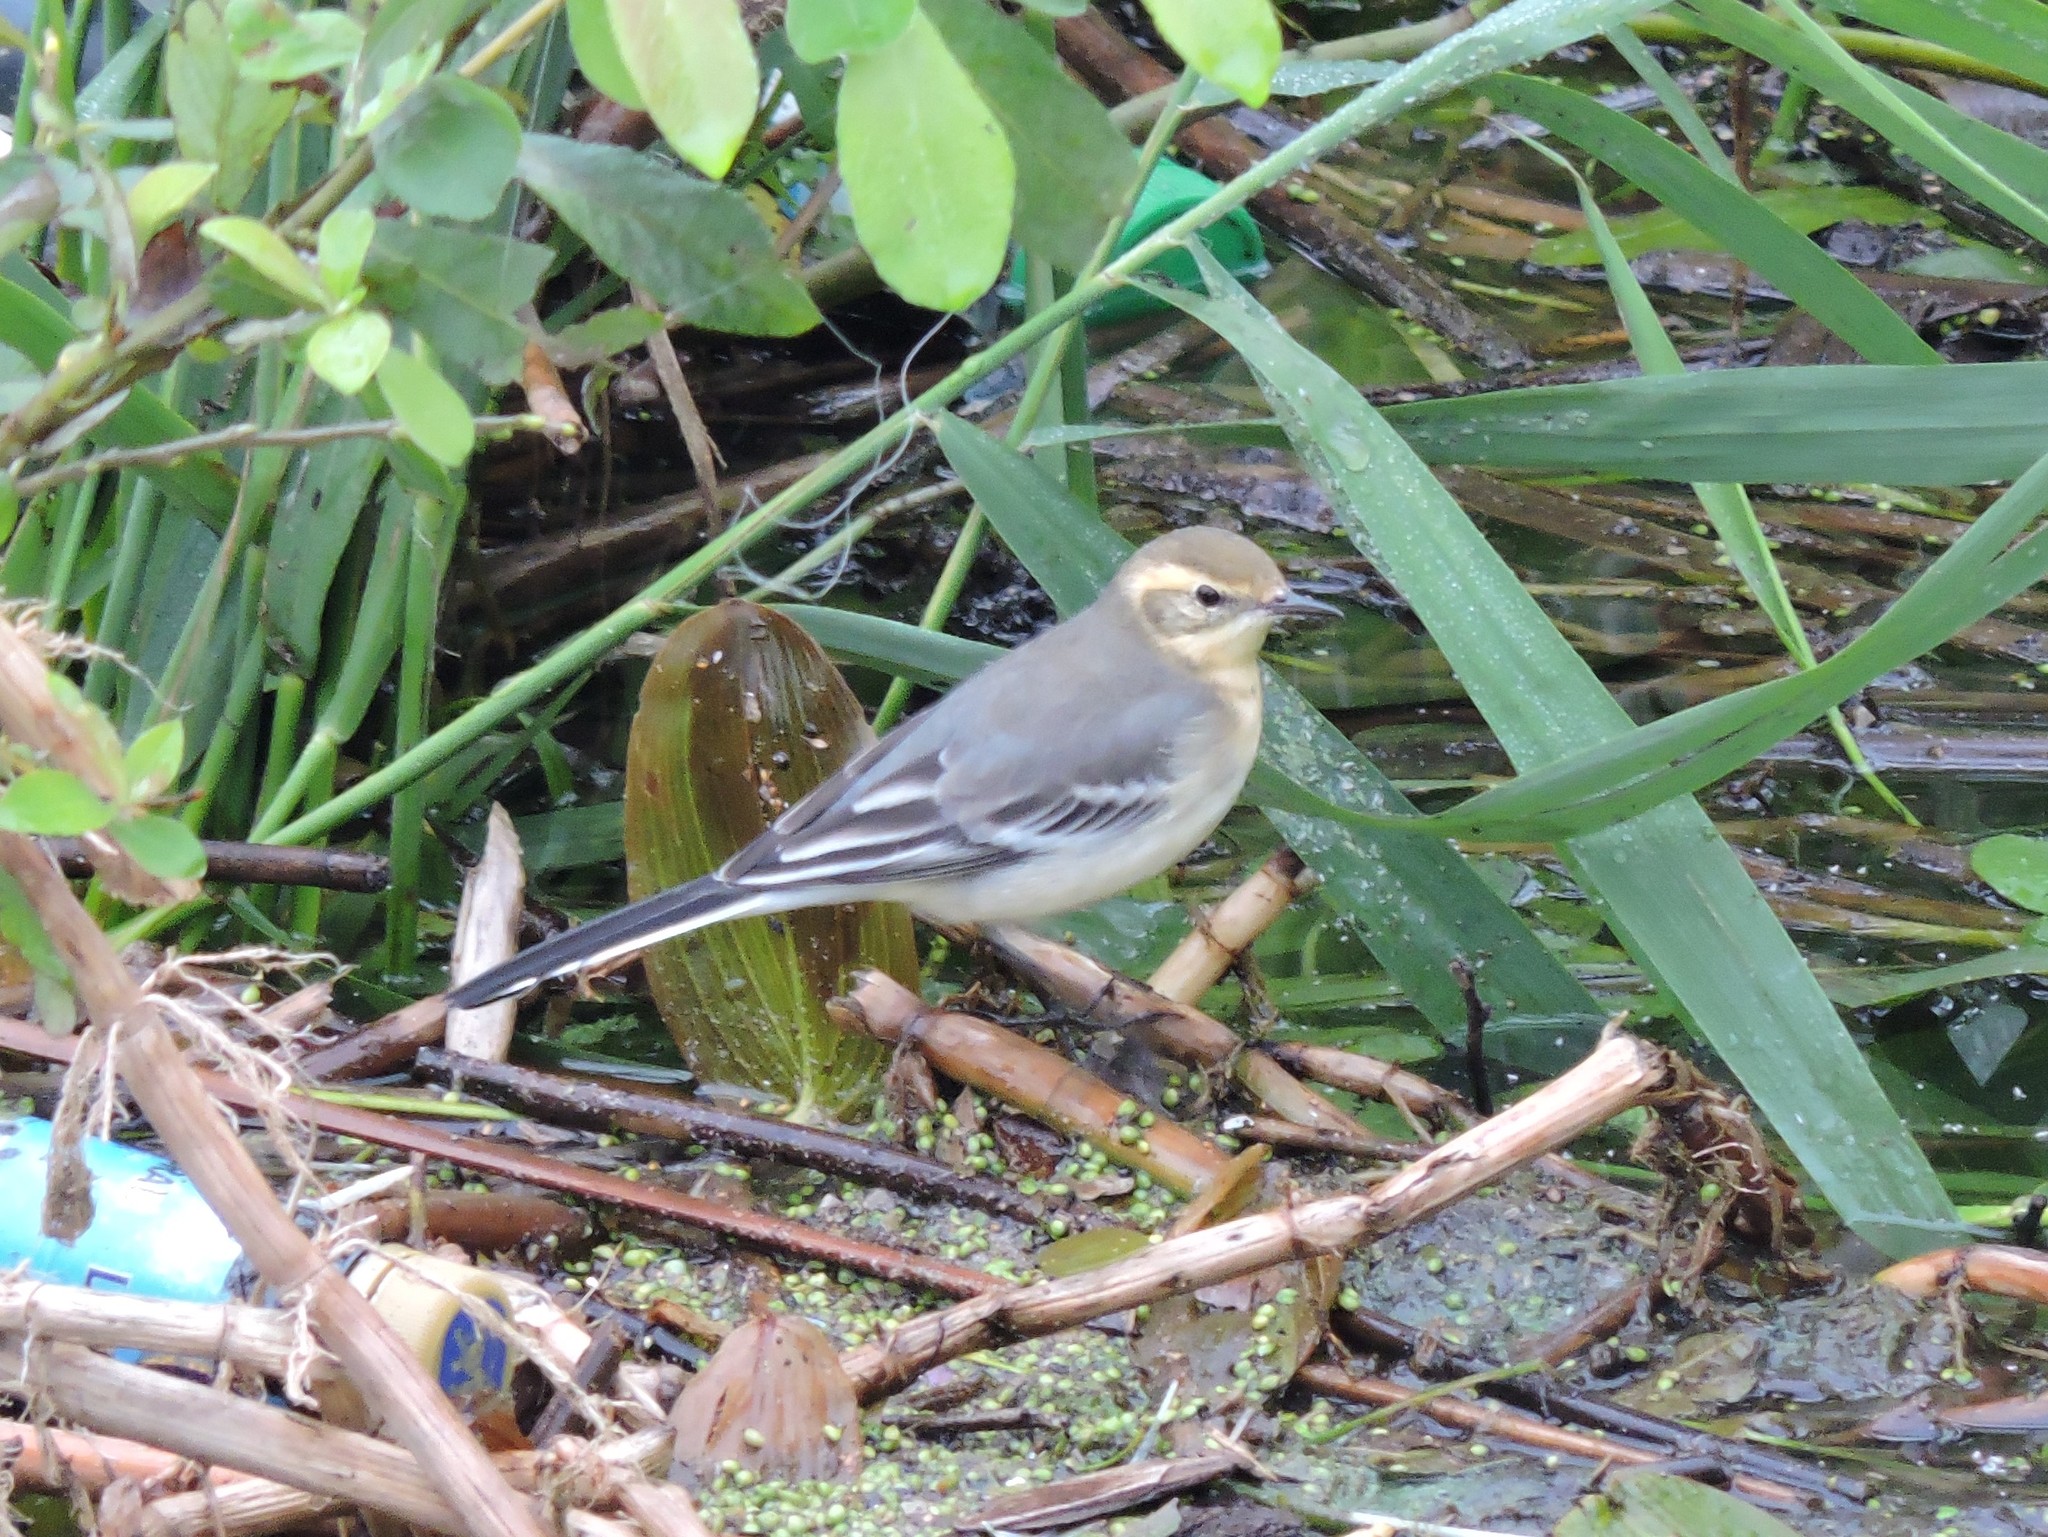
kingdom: Animalia
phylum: Chordata
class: Aves
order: Passeriformes
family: Motacillidae
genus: Motacilla
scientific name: Motacilla citreola
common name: Citrine wagtail
